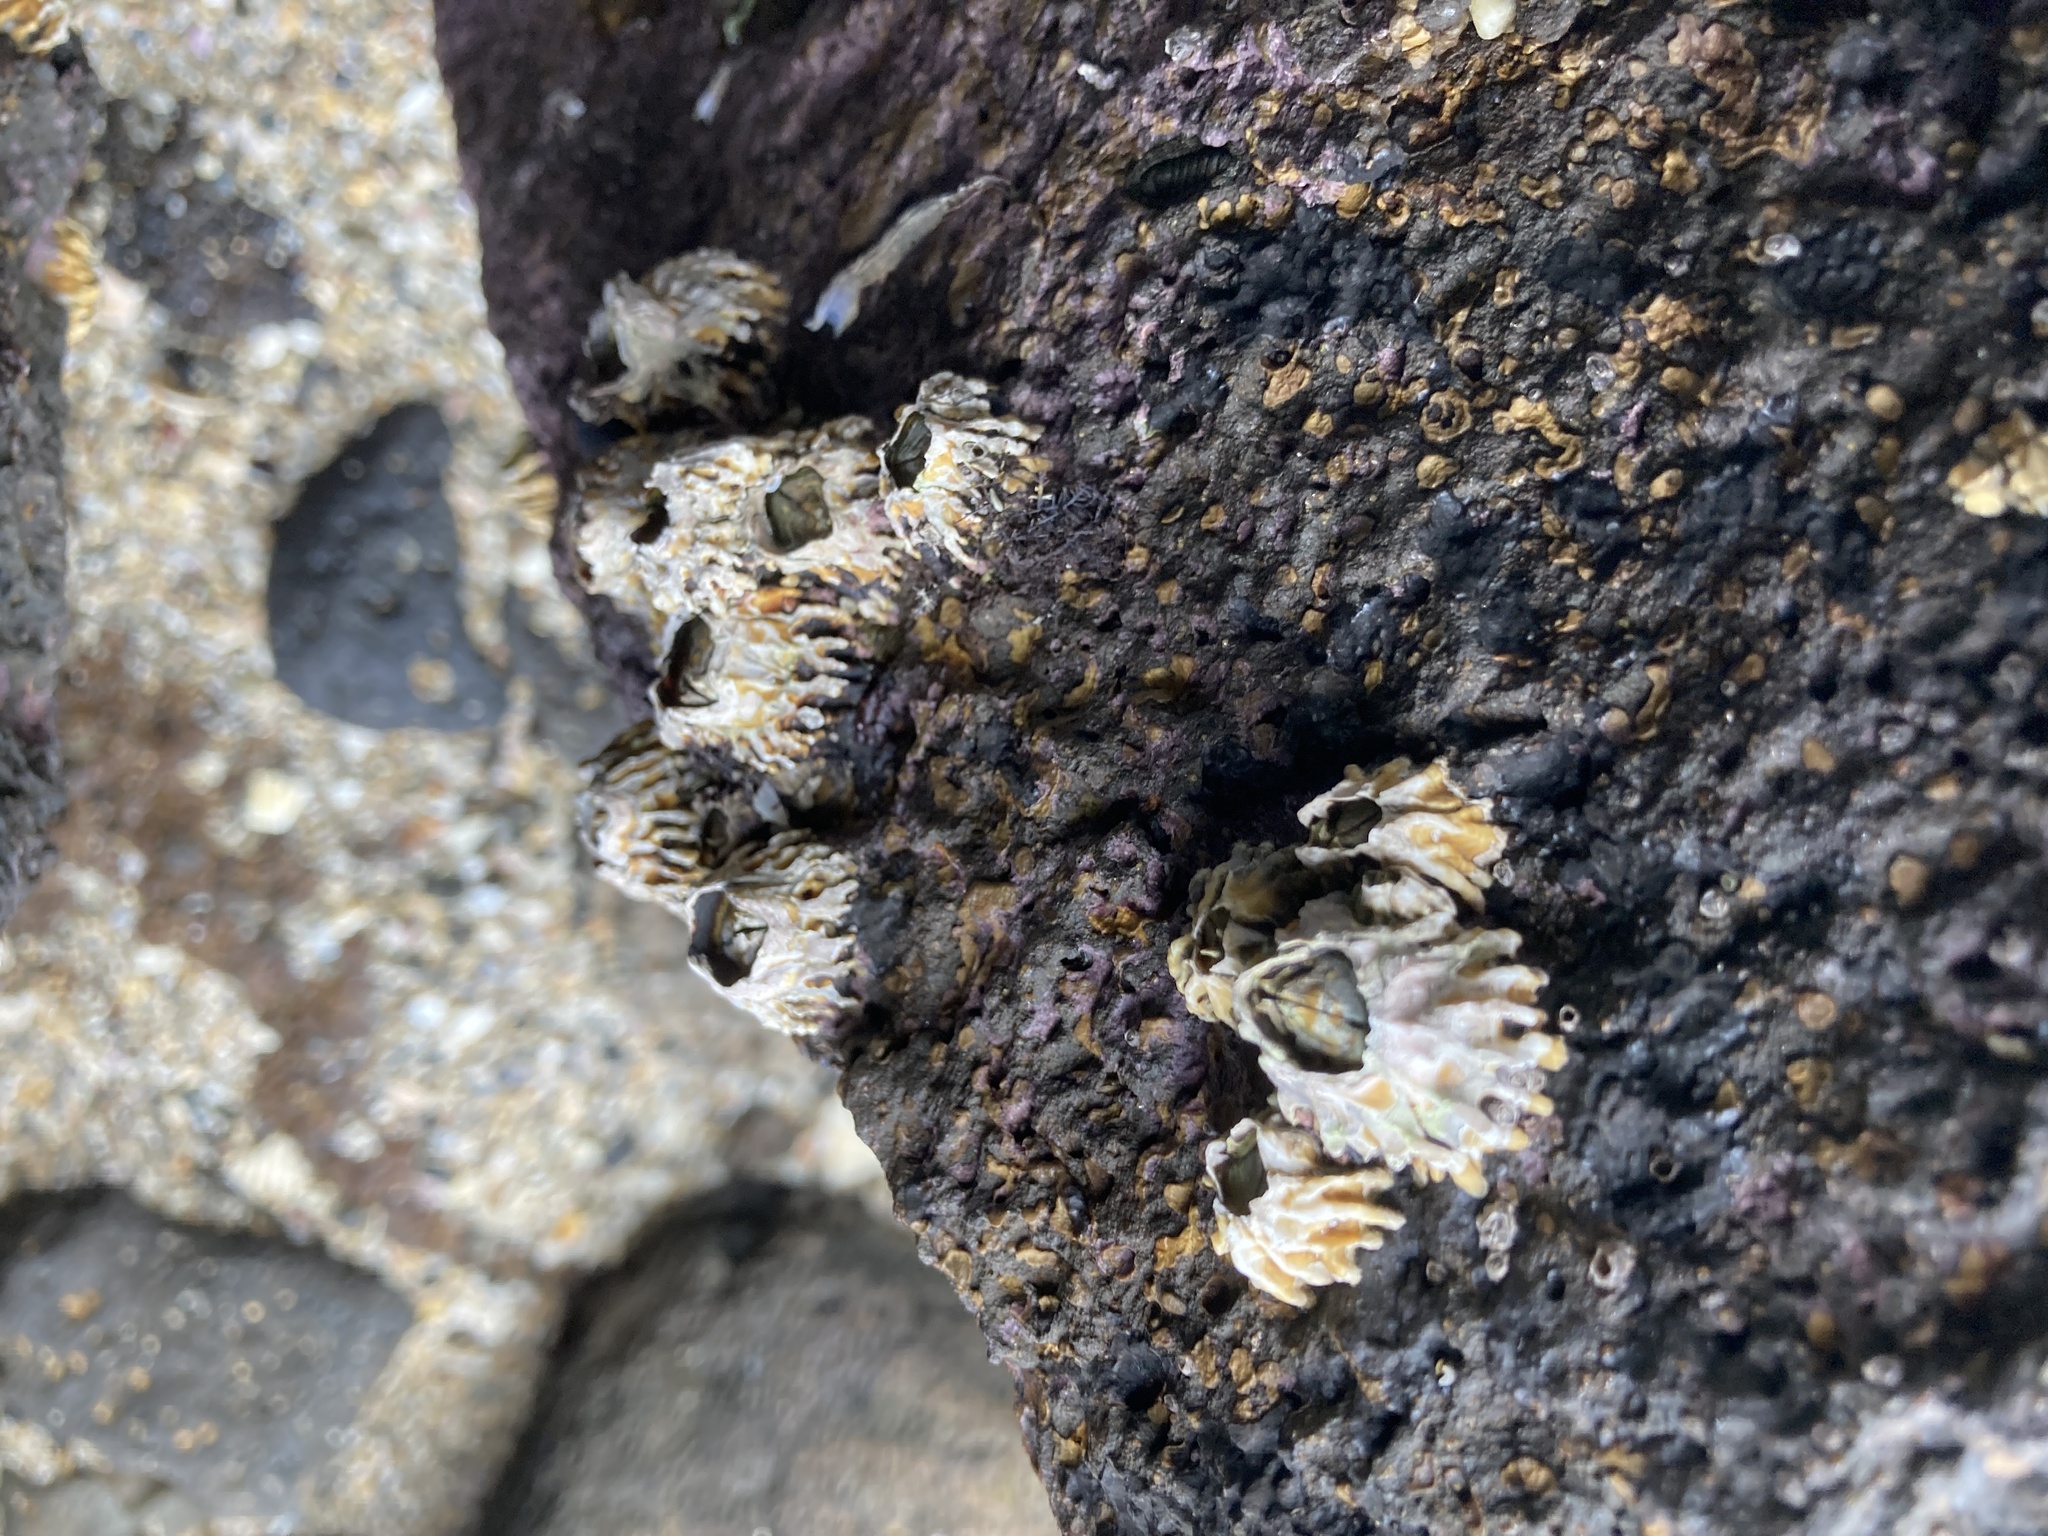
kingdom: Animalia
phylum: Arthropoda
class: Maxillopoda
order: Sessilia
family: Tetraclitidae
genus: Epopella
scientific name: Epopella plicata
